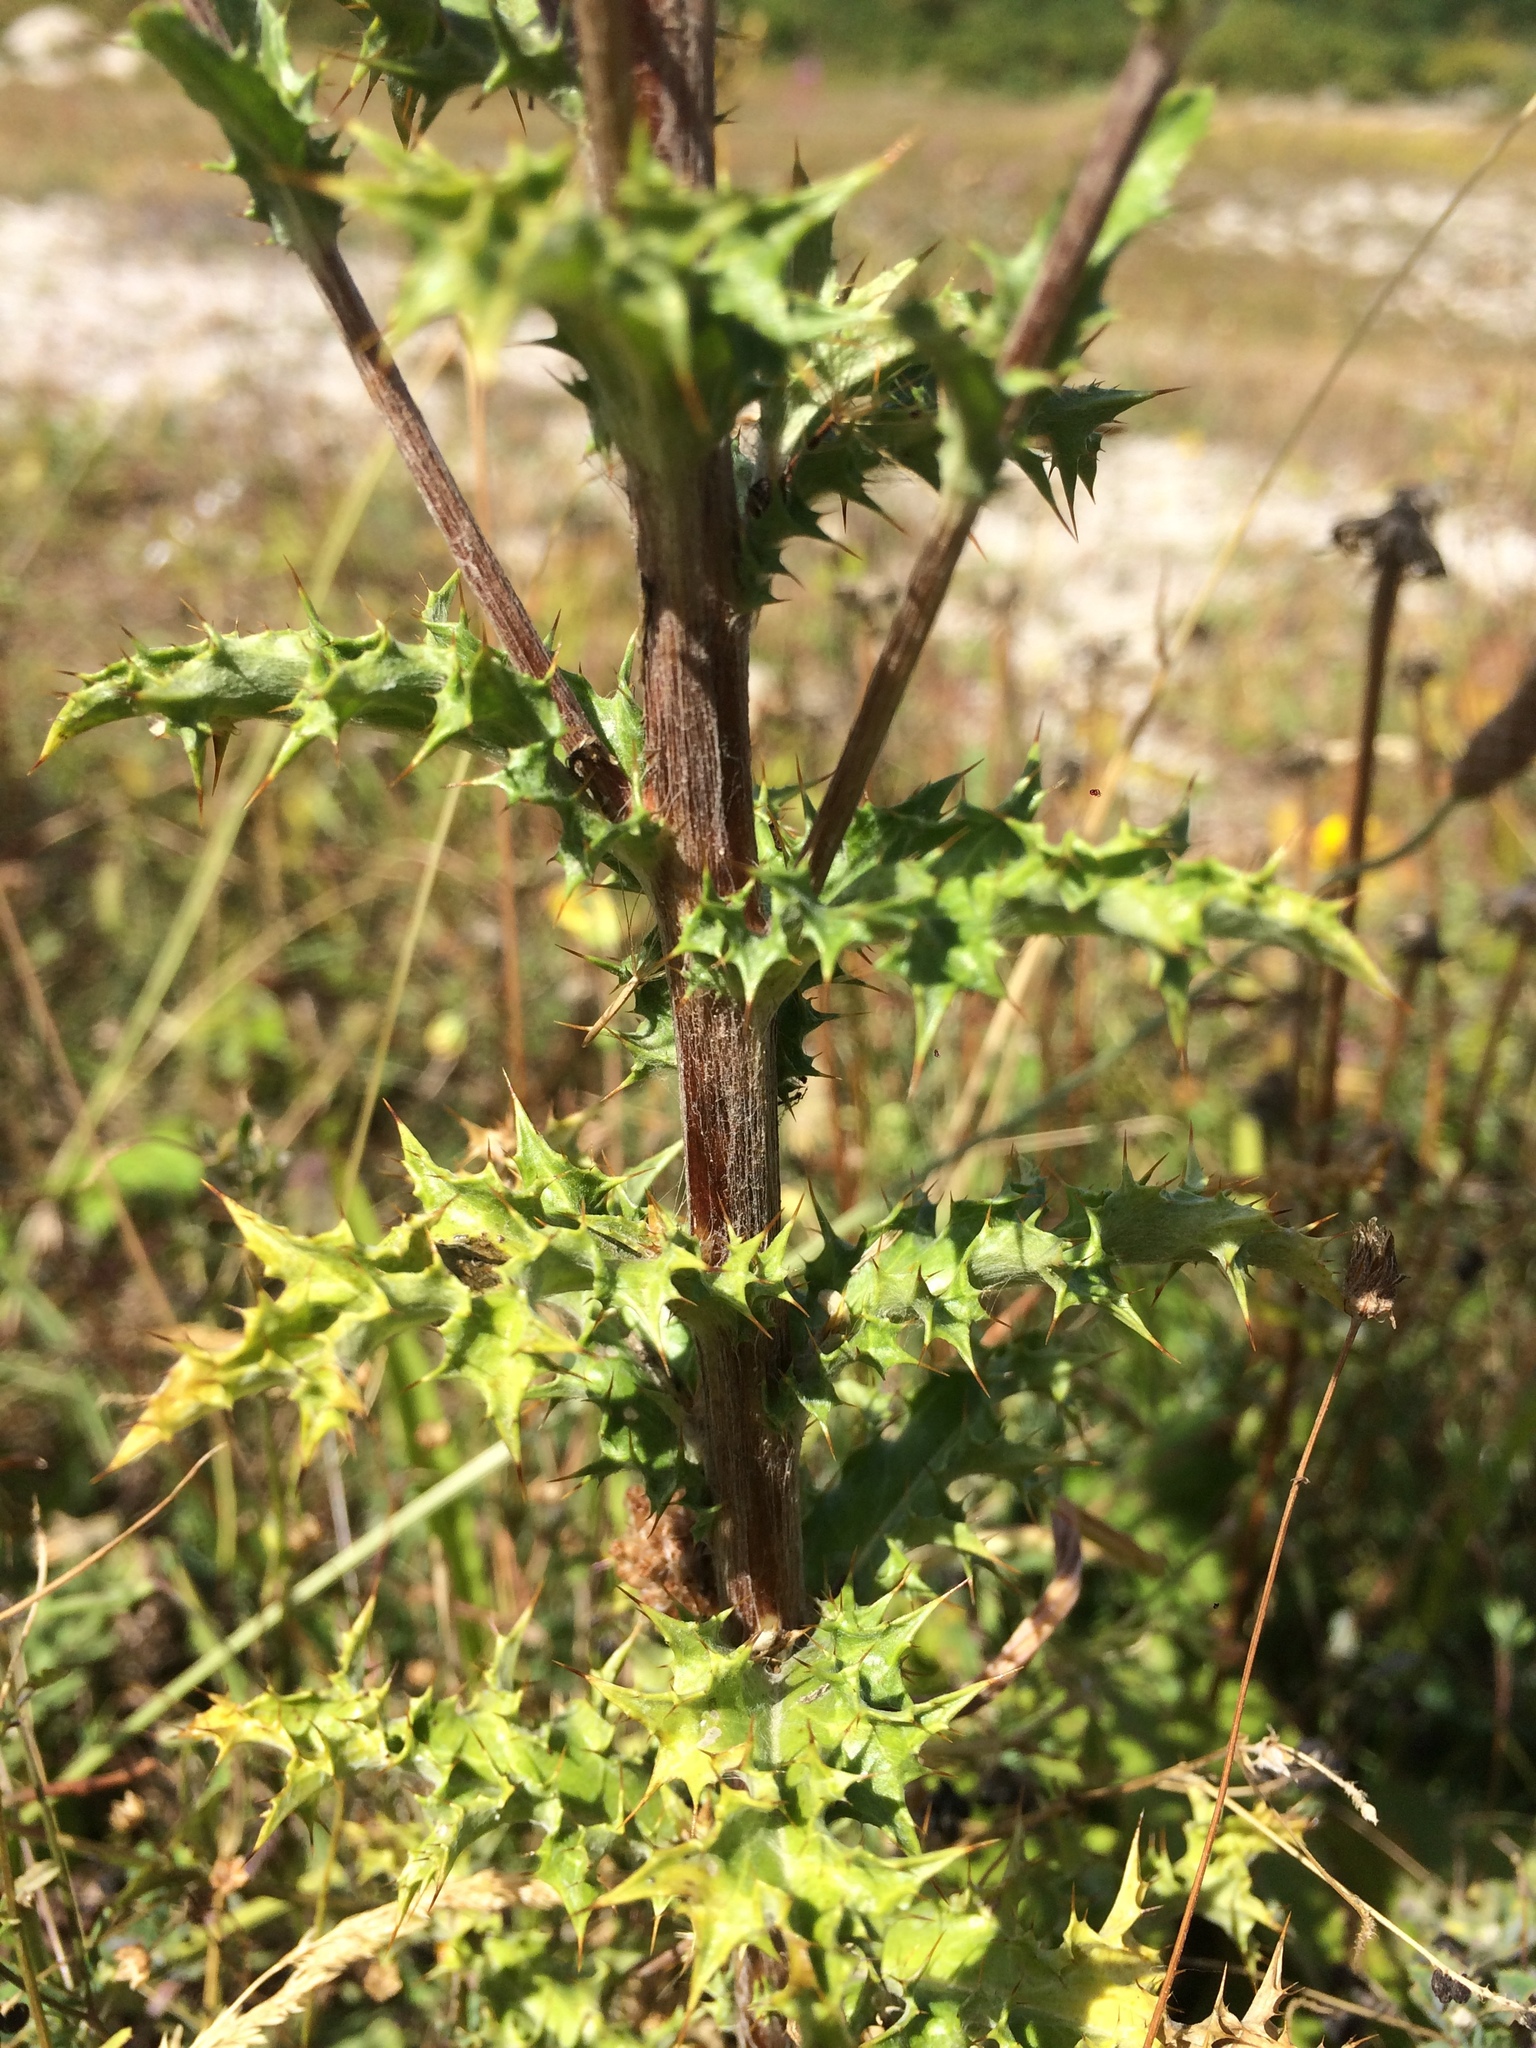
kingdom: Plantae
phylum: Tracheophyta
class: Magnoliopsida
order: Asterales
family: Asteraceae
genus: Carlina
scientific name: Carlina vulgaris
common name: Carline thistle
